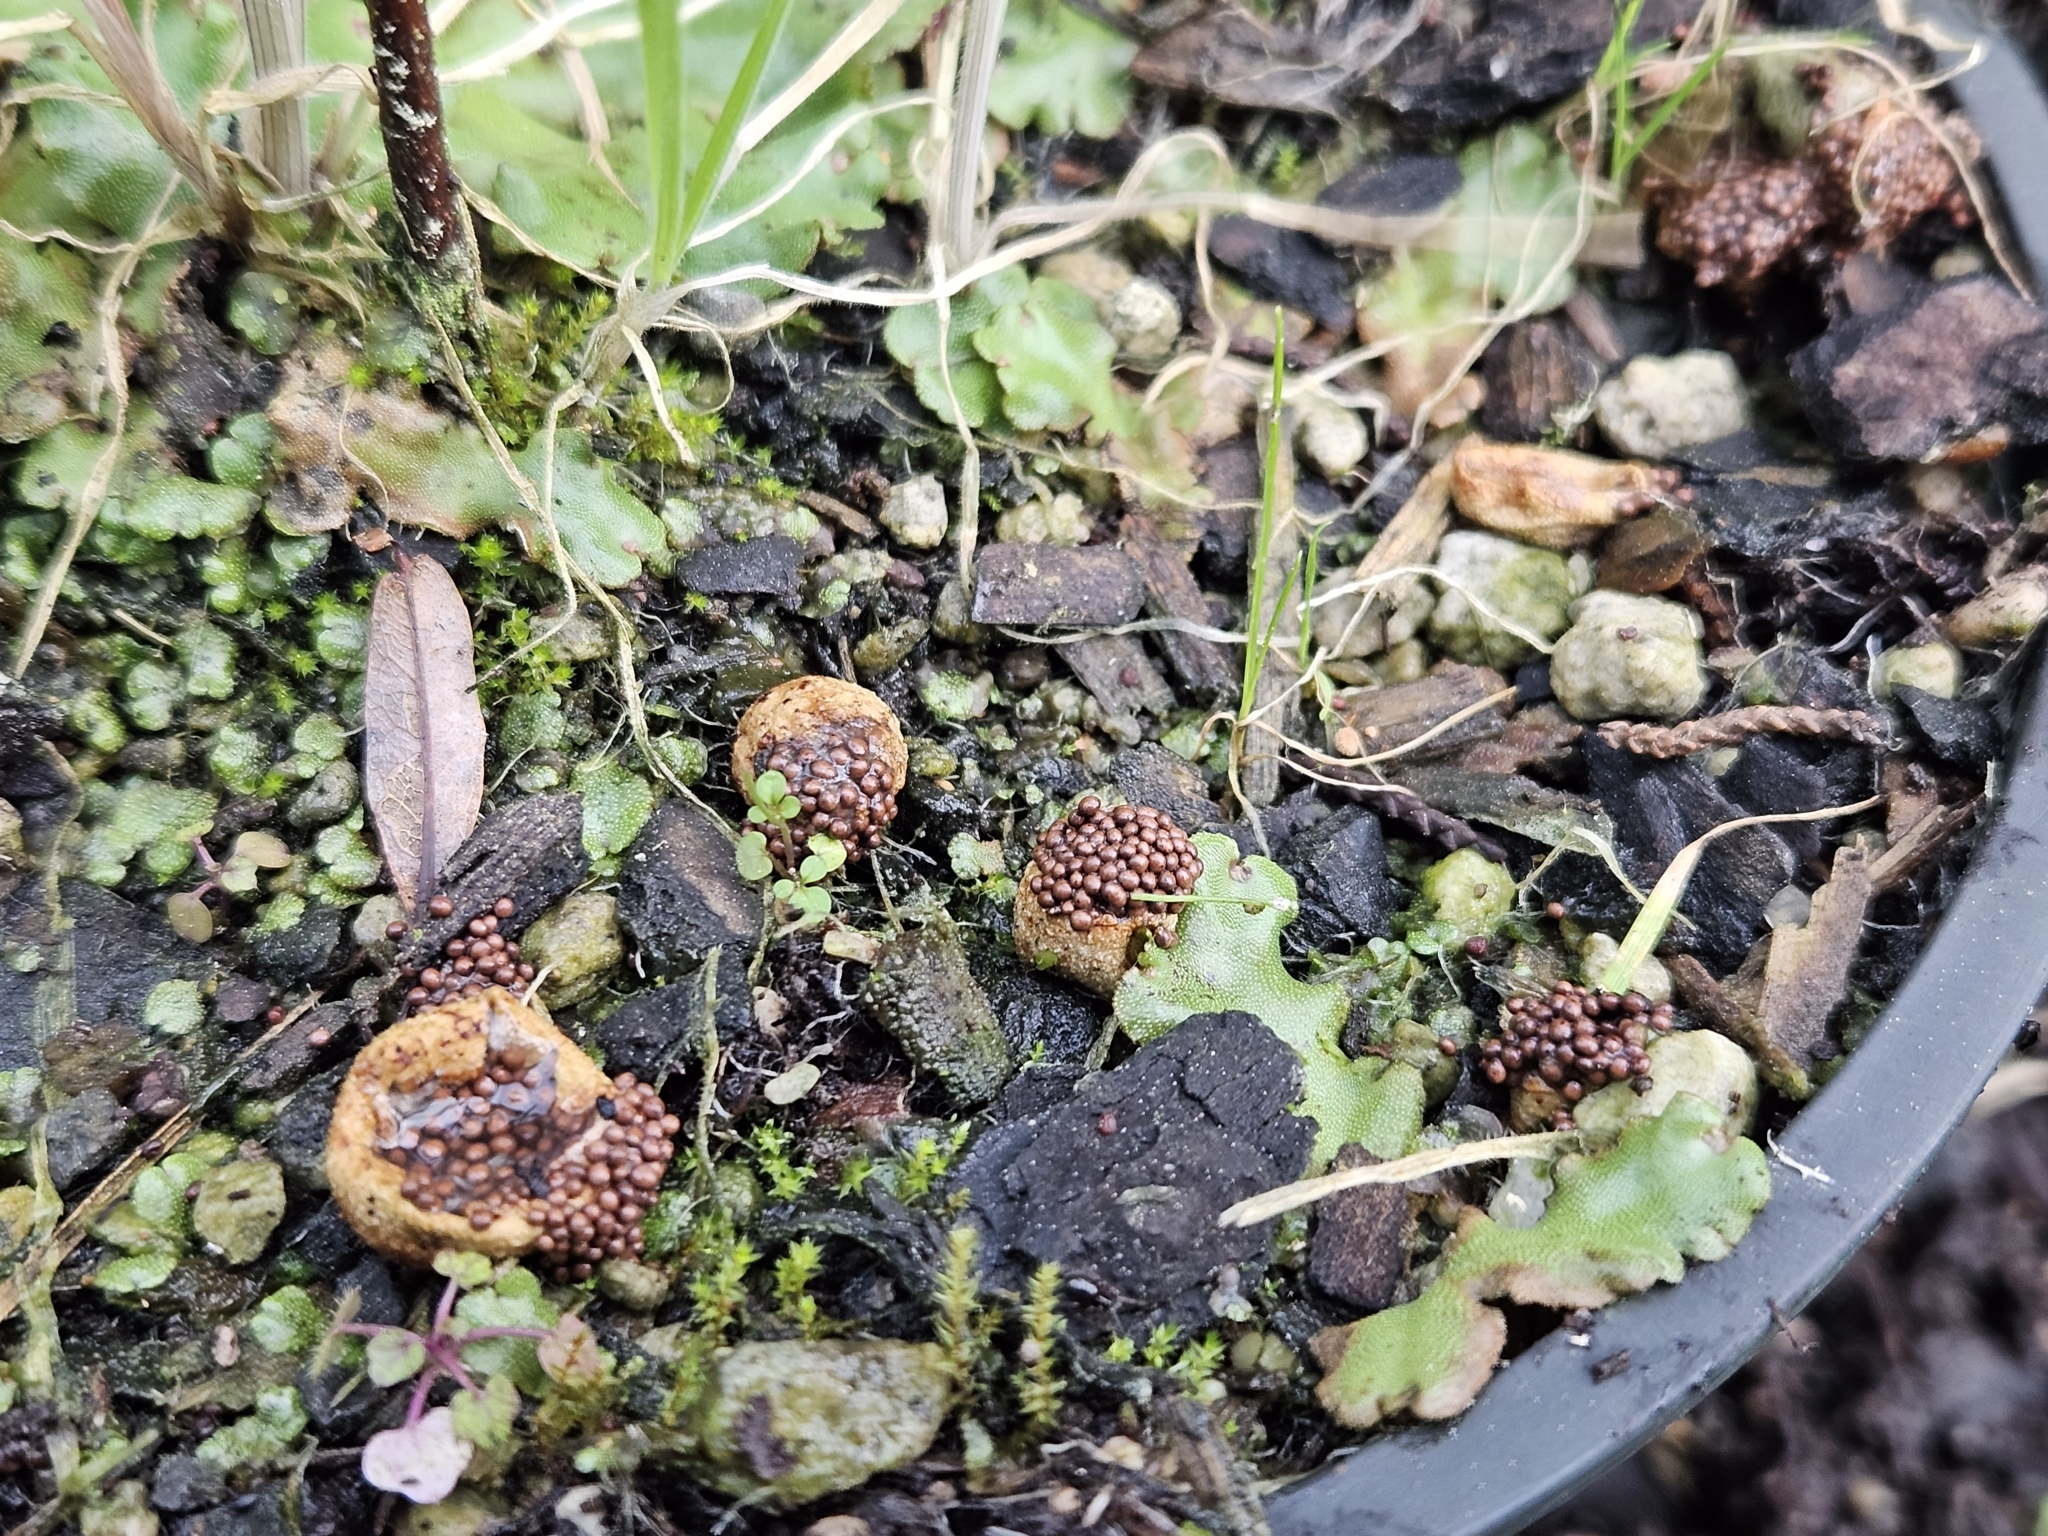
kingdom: Fungi
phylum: Basidiomycota
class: Agaricomycetes
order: Agaricales
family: Agaricaceae
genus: Nidularia
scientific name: Nidularia deformis
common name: Pea-shaped bird's nest
